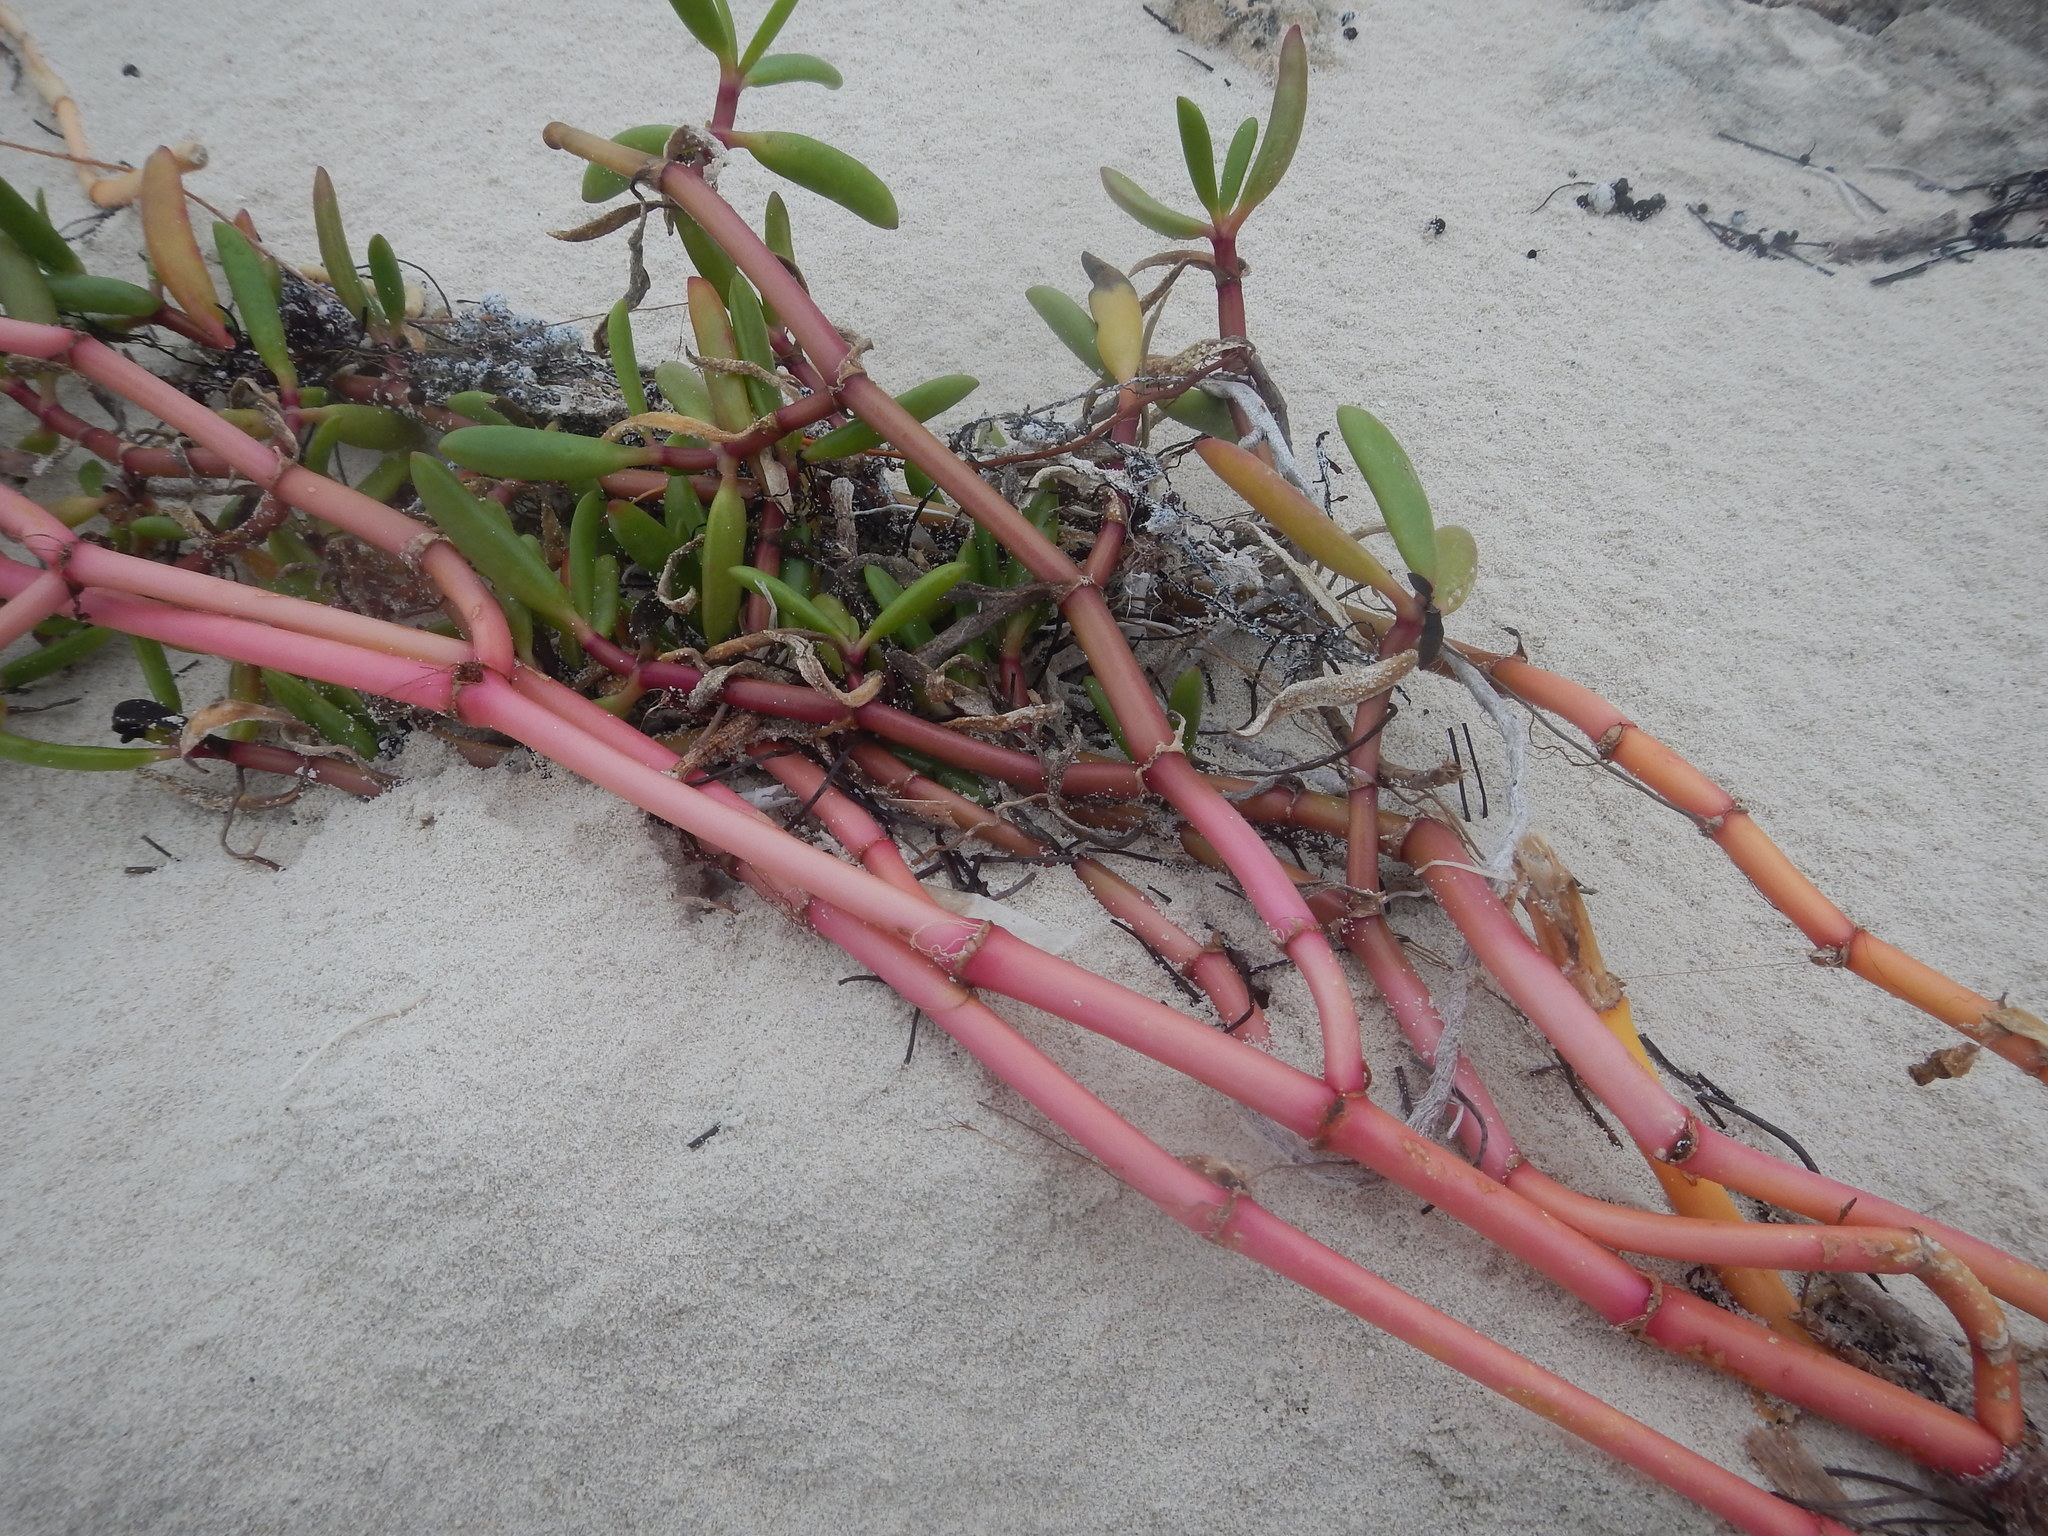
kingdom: Plantae
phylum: Tracheophyta
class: Magnoliopsida
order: Caryophyllales
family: Aizoaceae
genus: Sesuvium
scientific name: Sesuvium portulacastrum
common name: Sea-purslane
